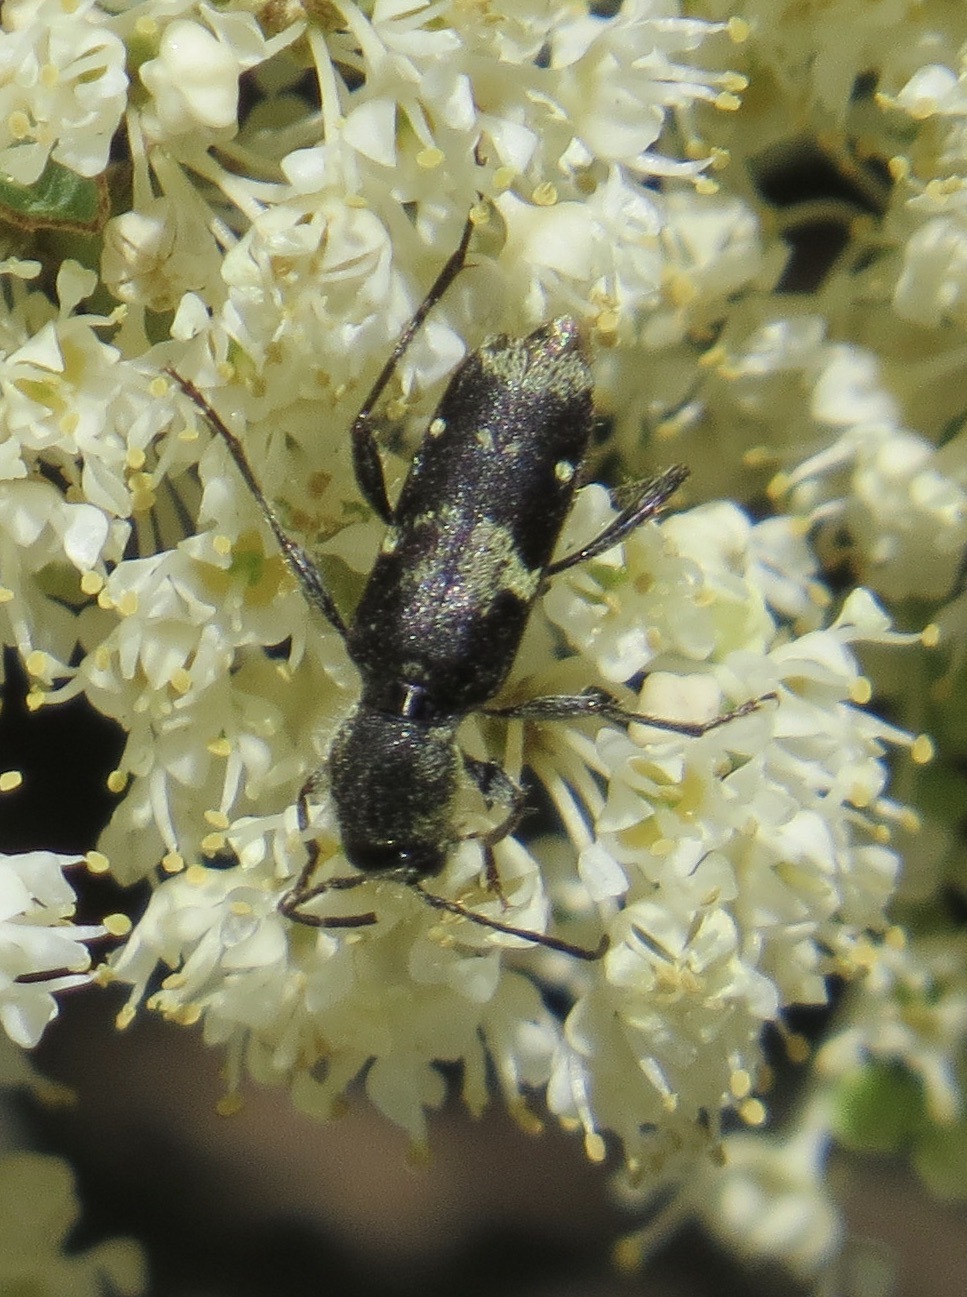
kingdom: Animalia
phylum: Arthropoda
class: Insecta
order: Coleoptera
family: Cerambycidae
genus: Clytus
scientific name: Clytus clitellarius
